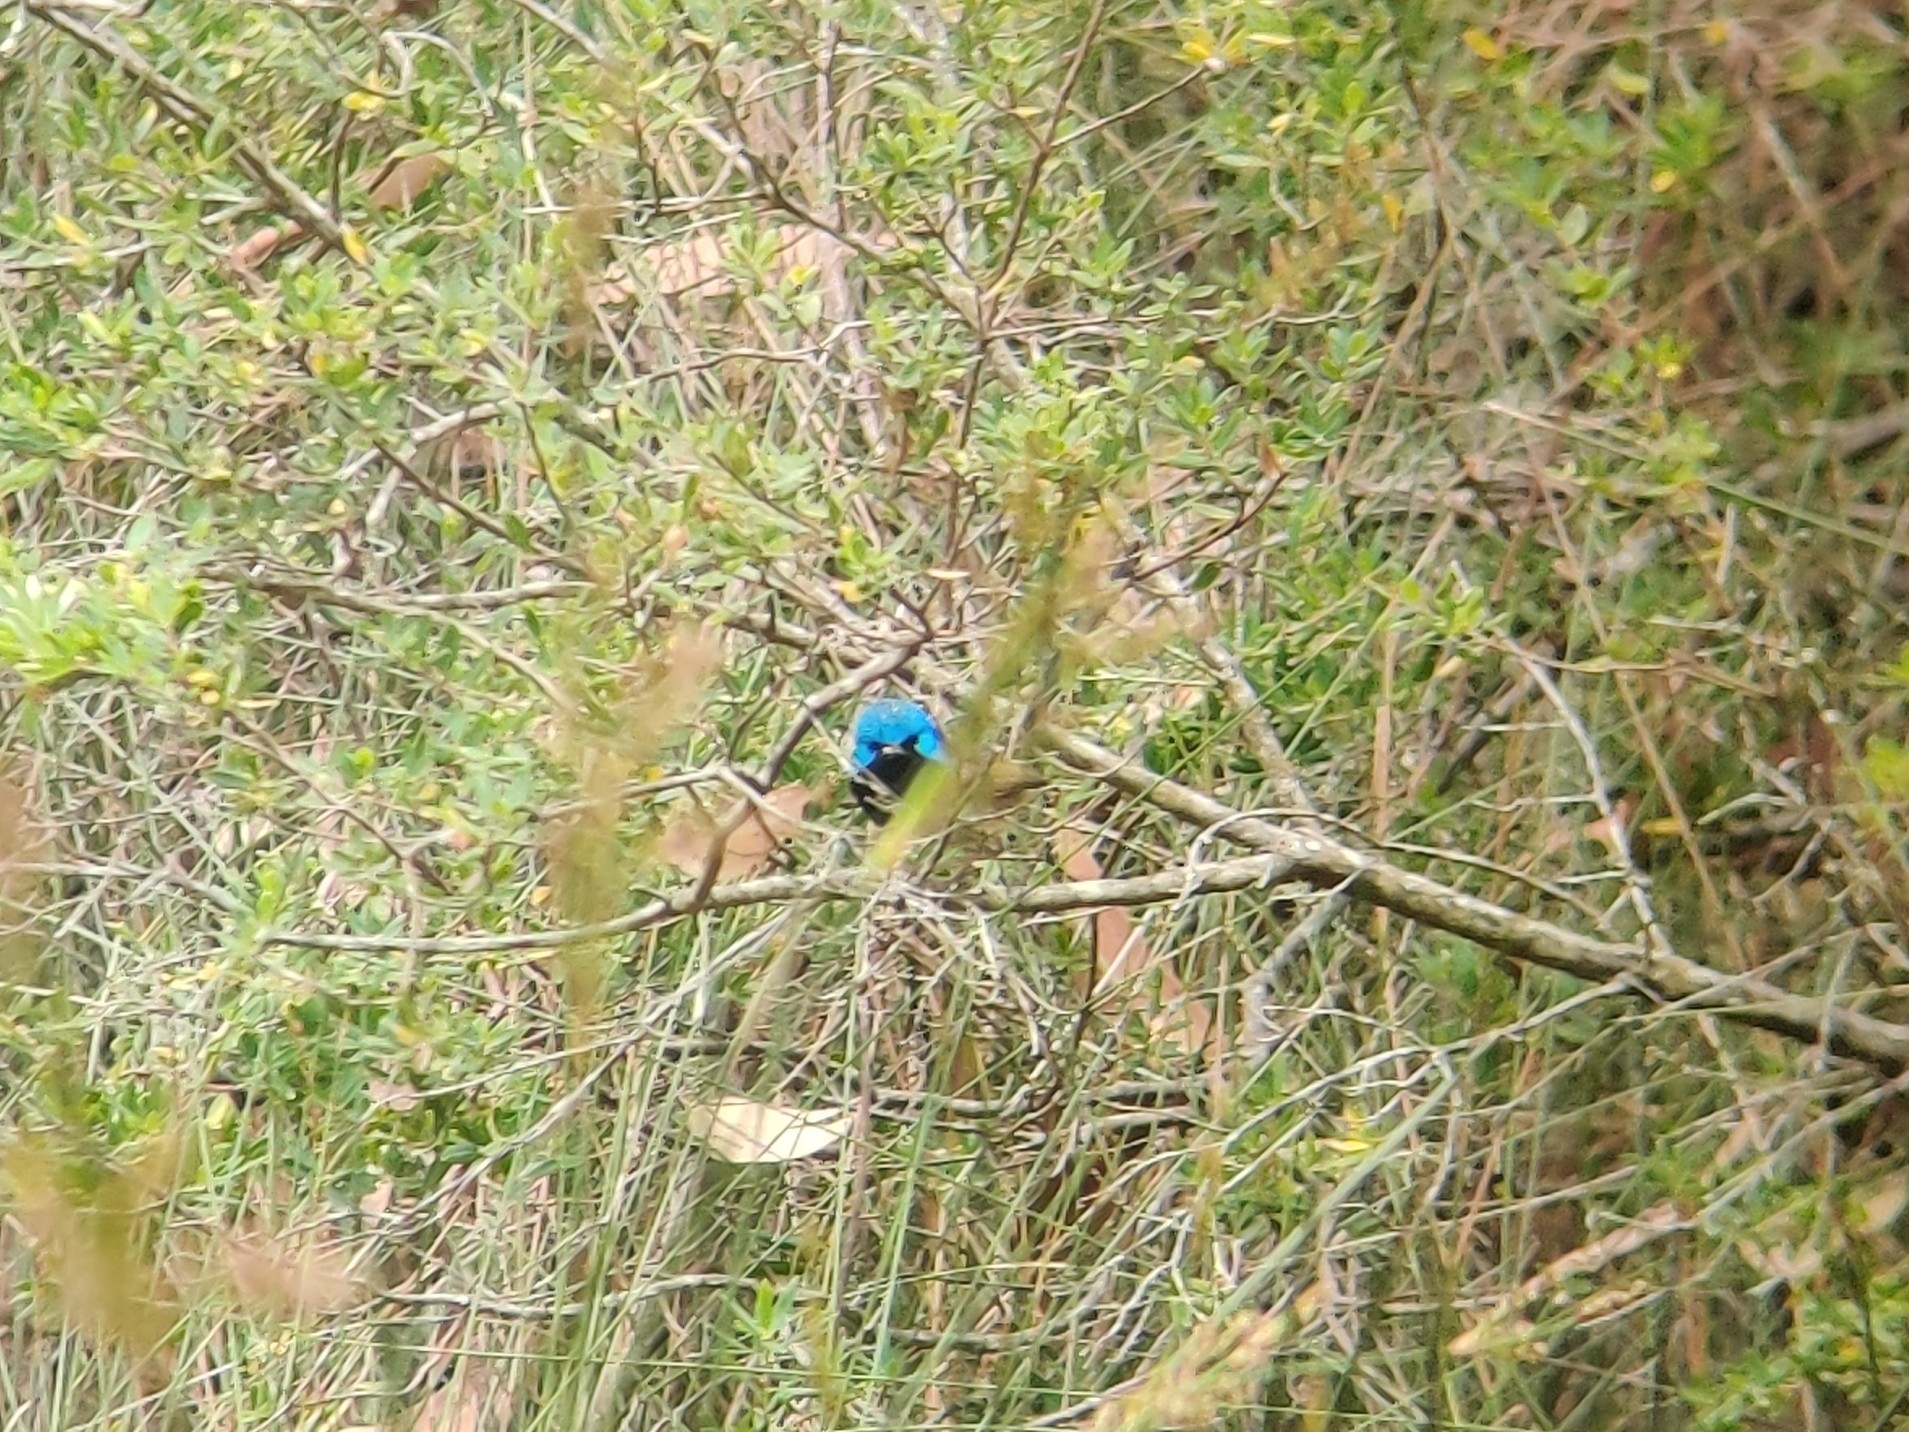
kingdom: Animalia
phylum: Chordata
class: Aves
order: Passeriformes
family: Maluridae
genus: Malurus
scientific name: Malurus lamberti
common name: Variegated fairywren
